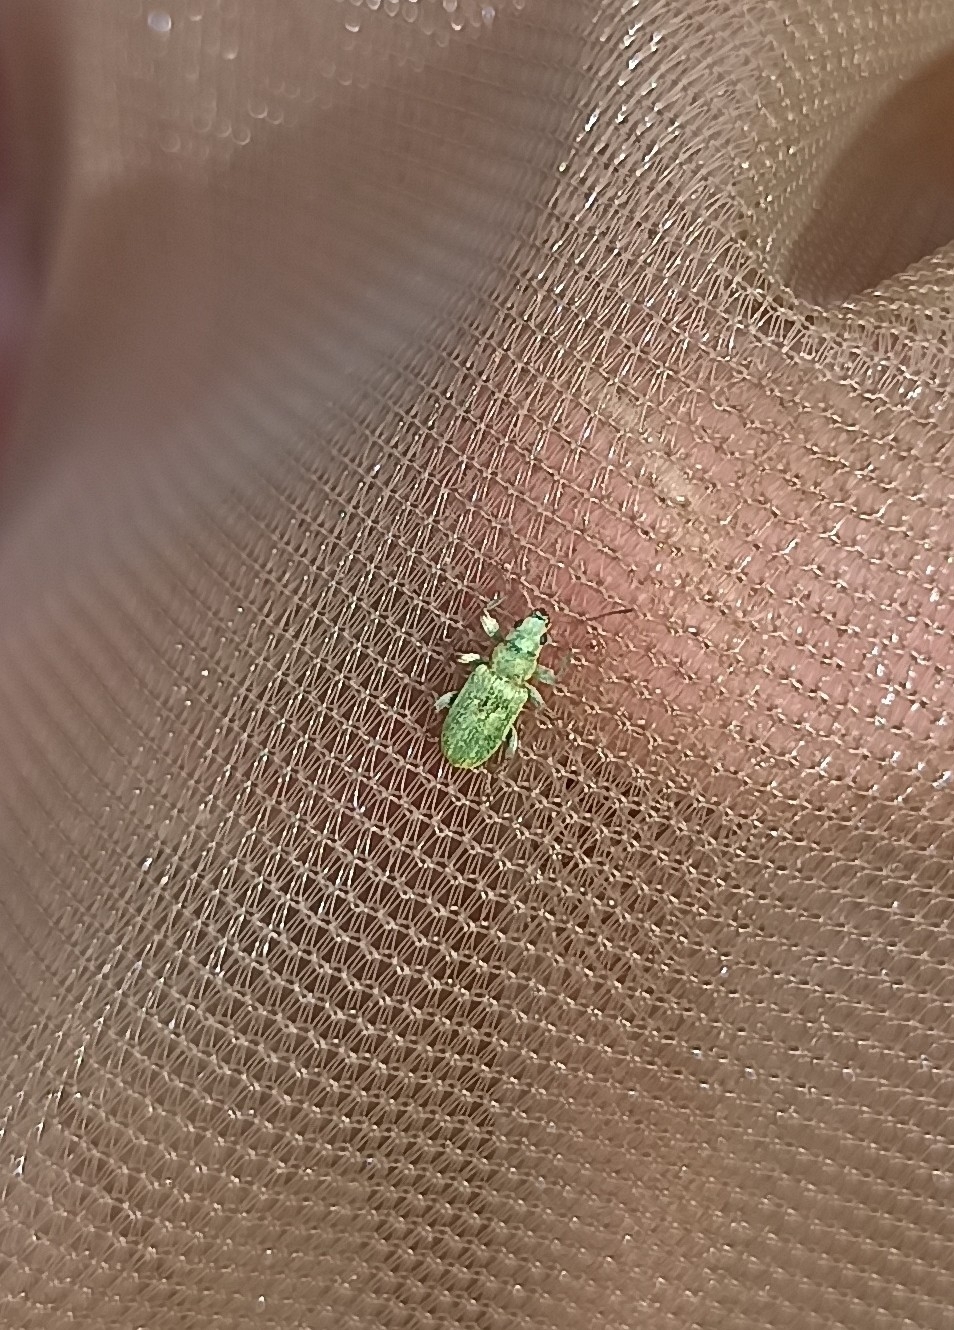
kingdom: Animalia
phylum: Arthropoda
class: Insecta
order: Coleoptera
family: Curculionidae
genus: Pachyrhinus
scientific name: Pachyrhinus lethierryi
